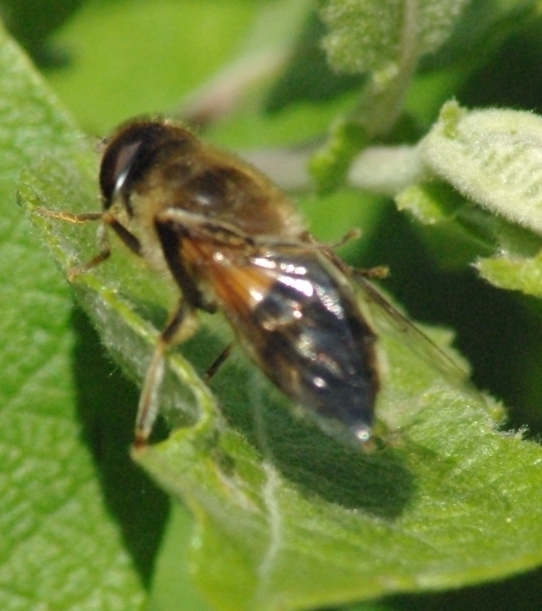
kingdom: Animalia
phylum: Arthropoda
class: Insecta
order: Diptera
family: Syrphidae
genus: Eristalis
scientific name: Eristalis pertinax
